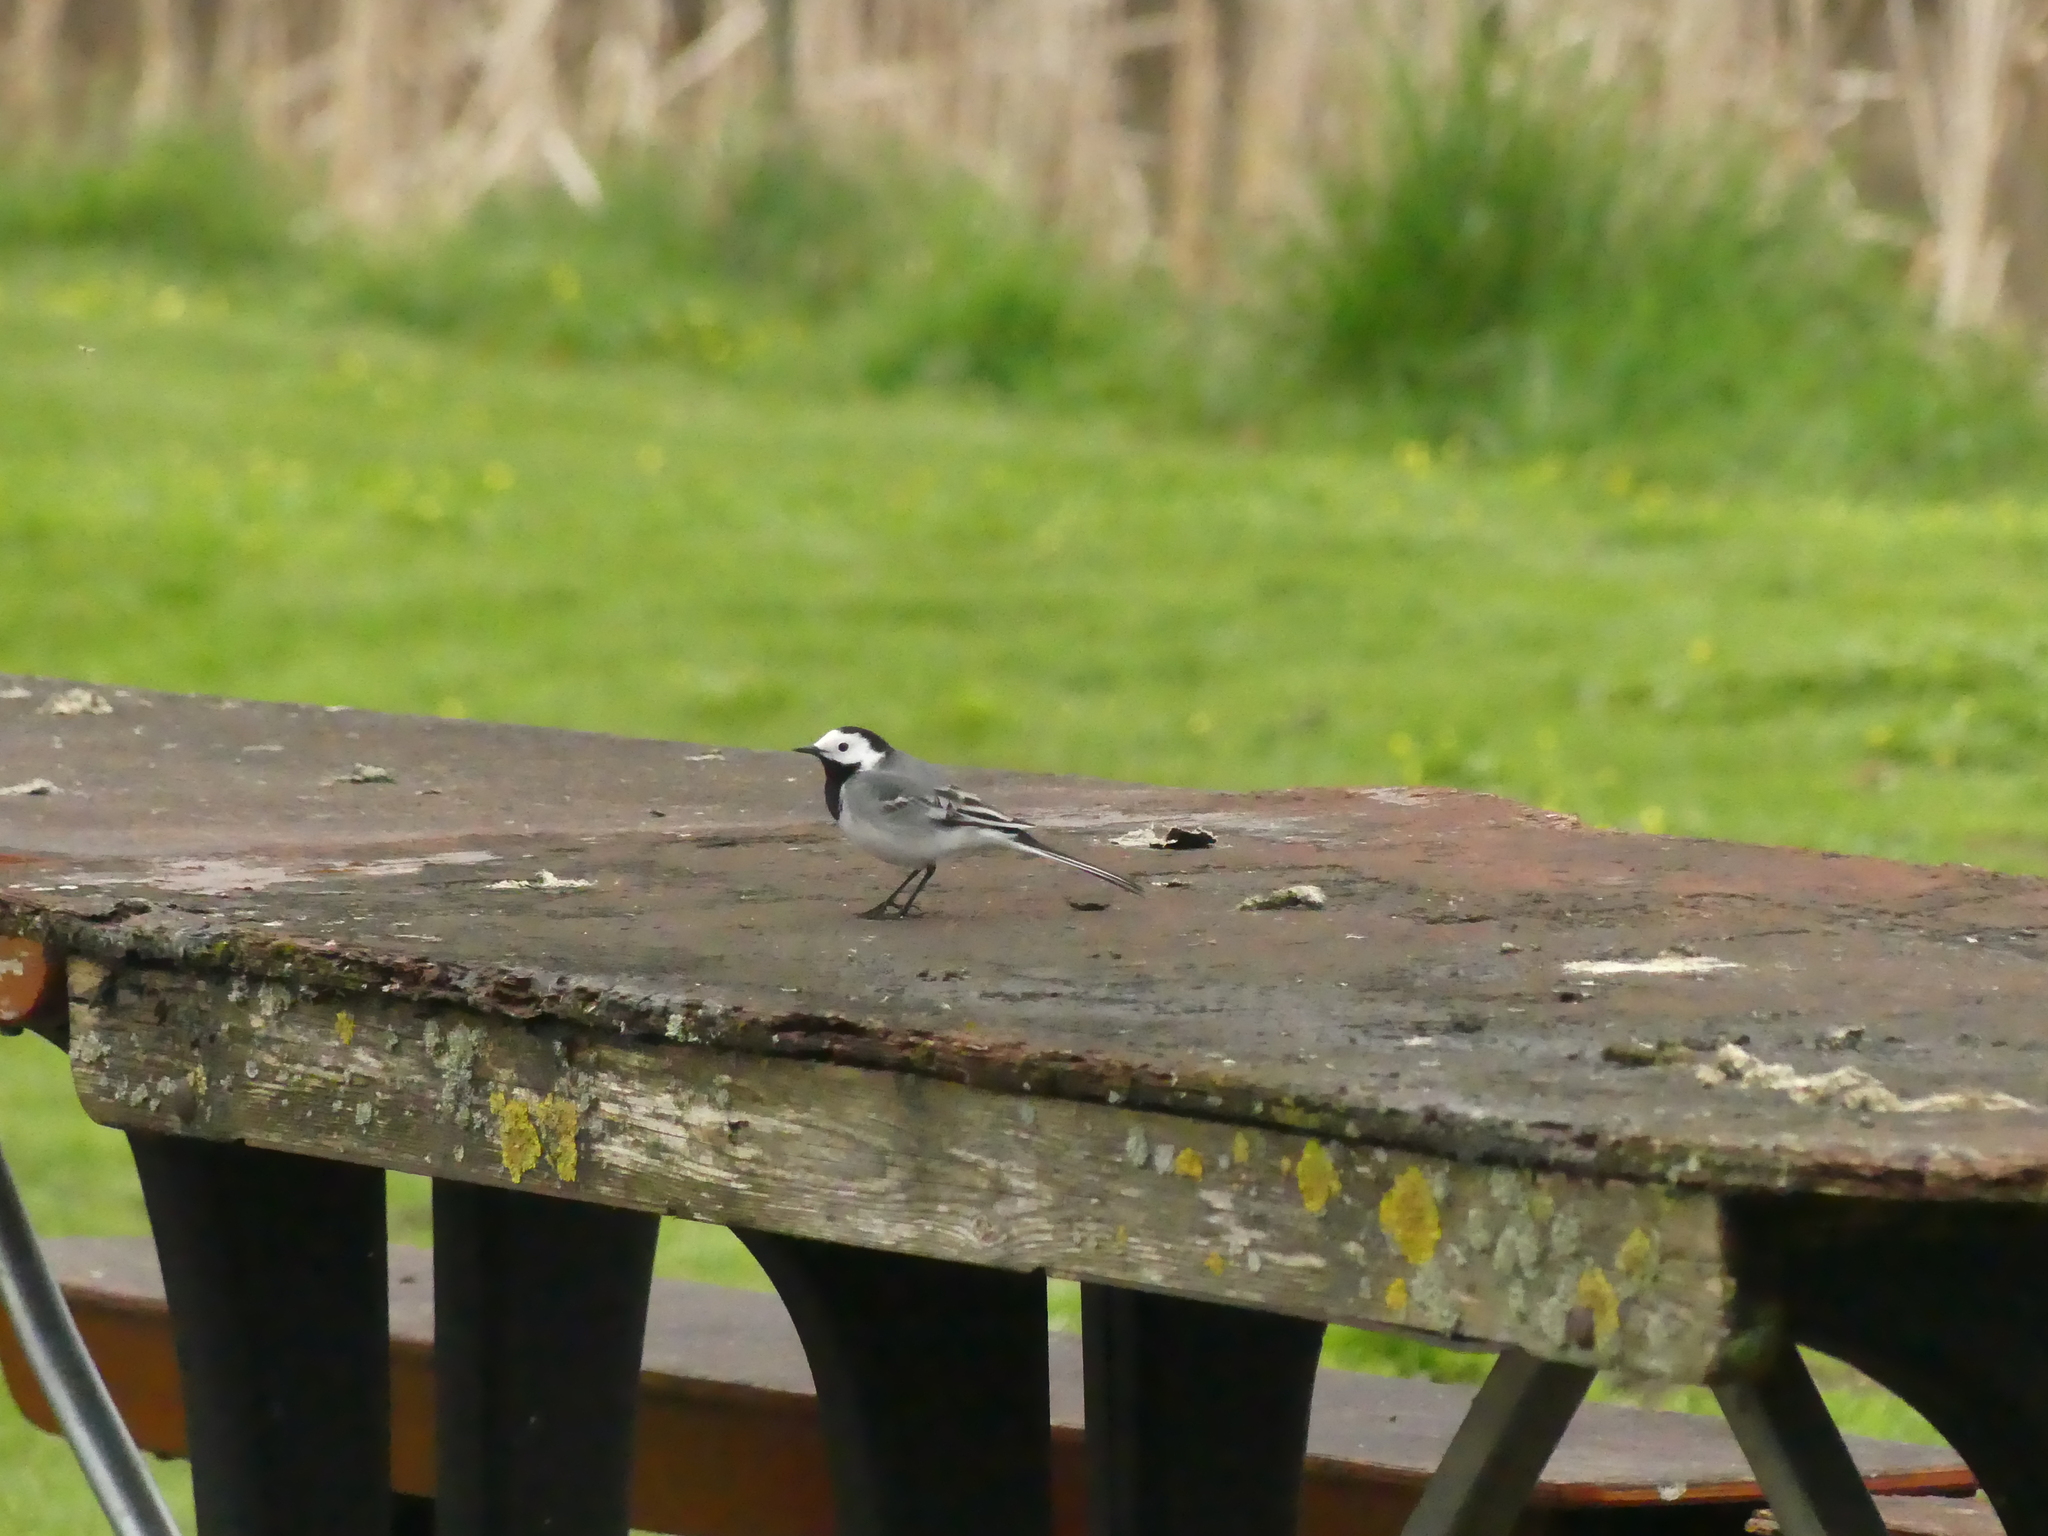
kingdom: Animalia
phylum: Chordata
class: Aves
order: Passeriformes
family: Motacillidae
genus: Motacilla
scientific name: Motacilla alba
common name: White wagtail
